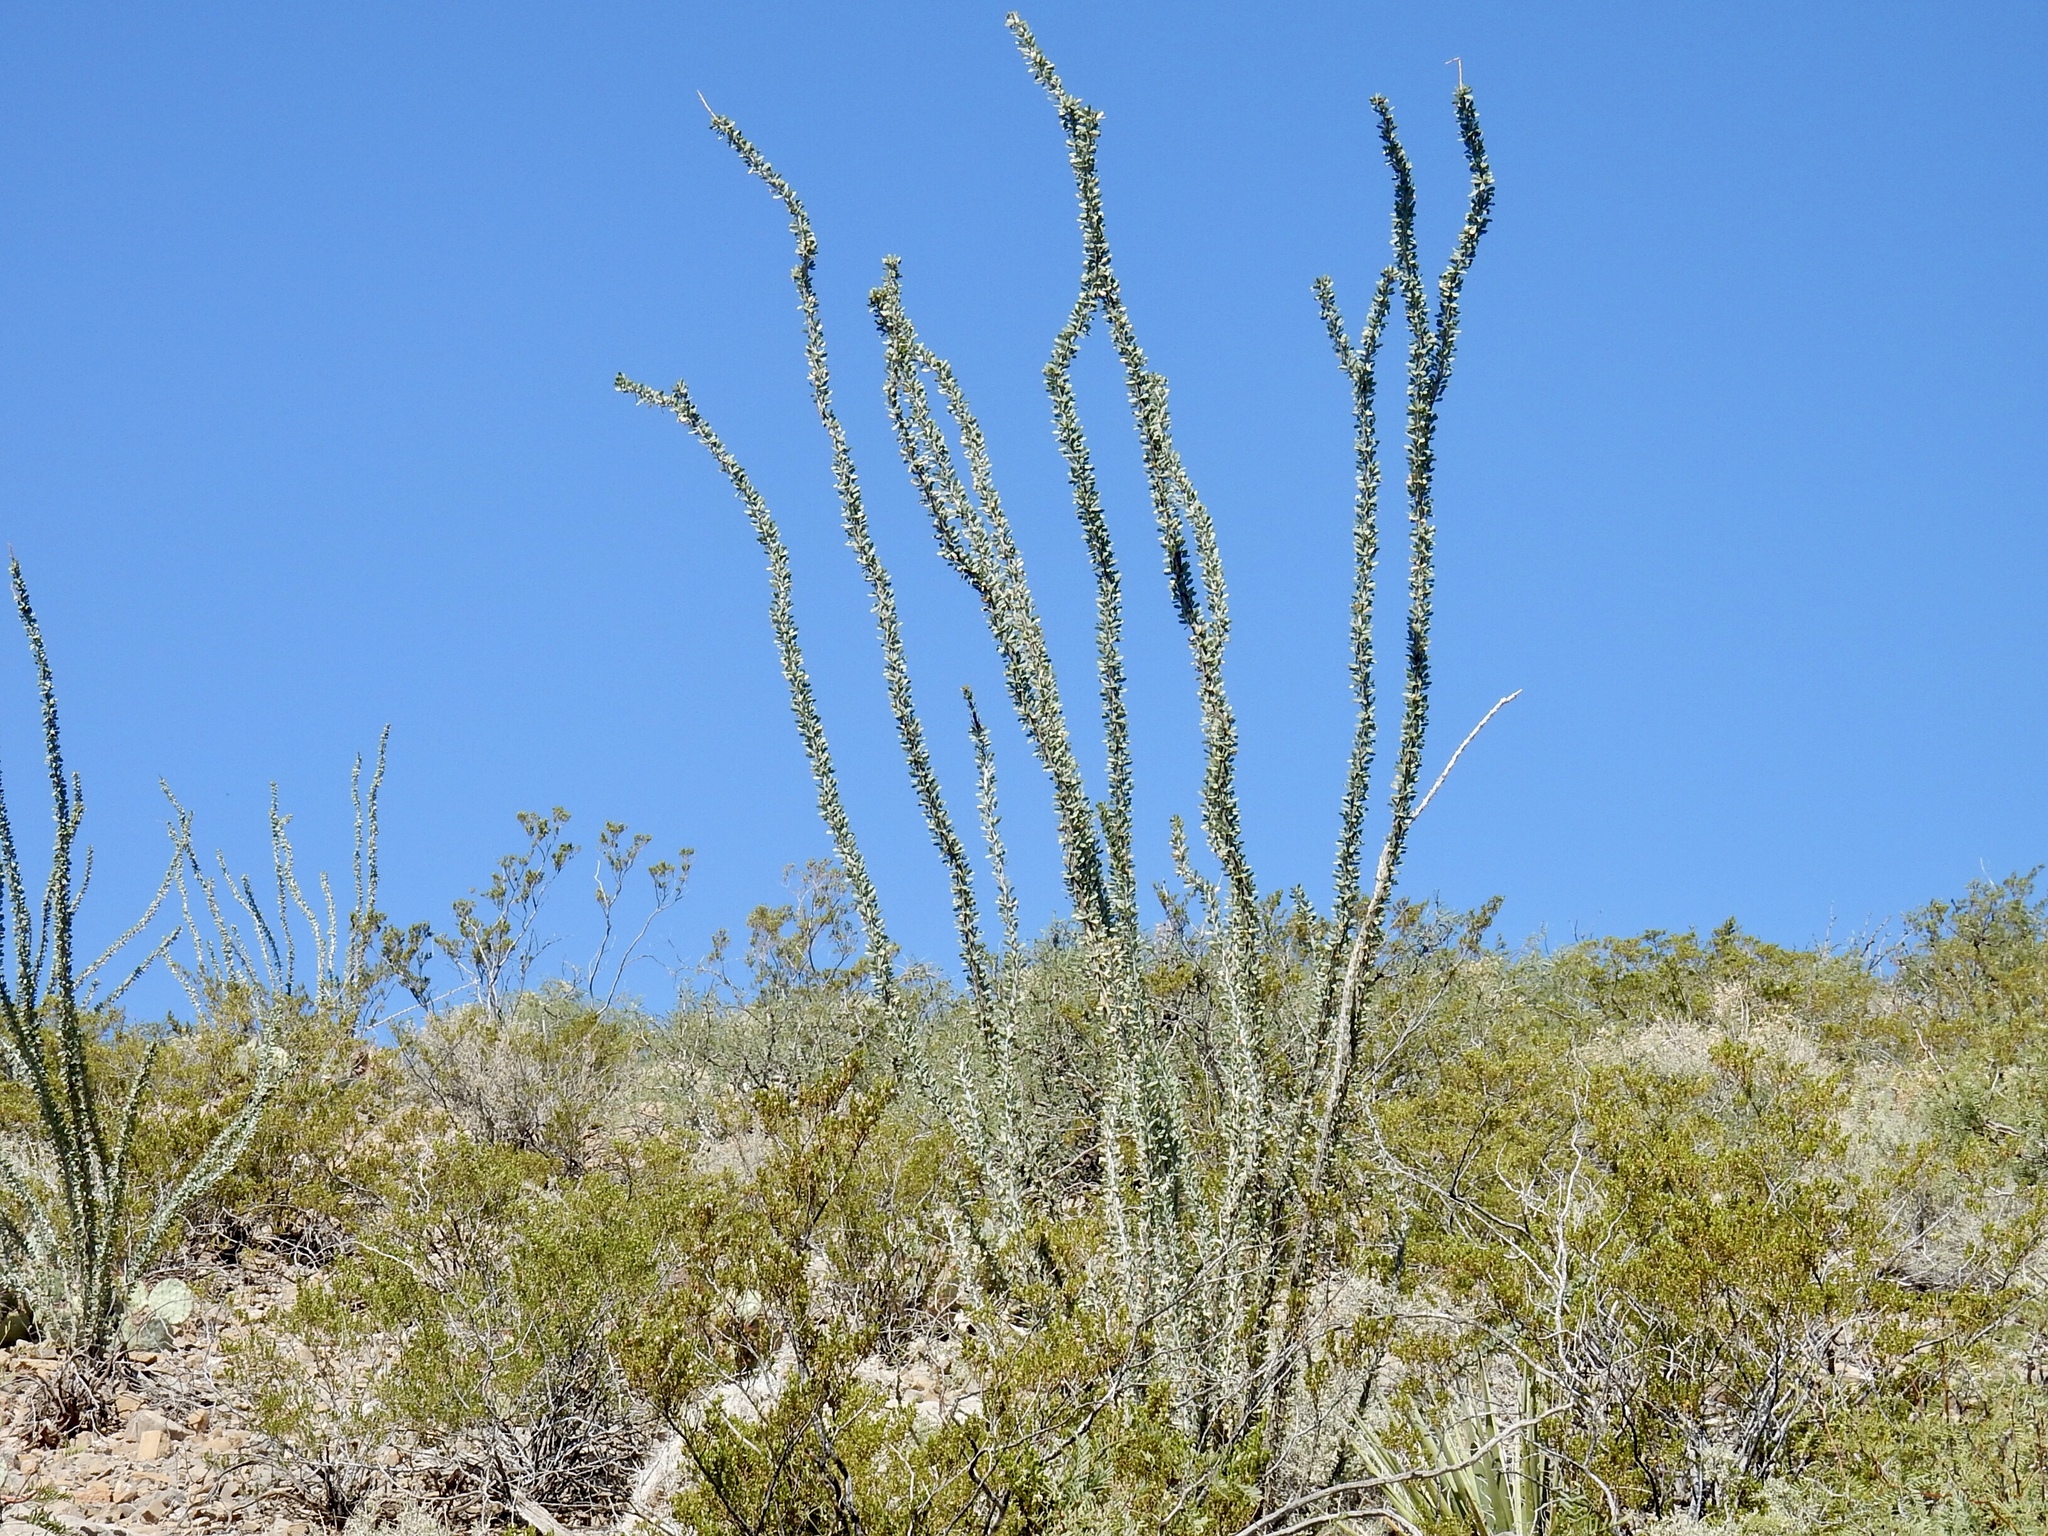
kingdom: Plantae
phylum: Tracheophyta
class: Magnoliopsida
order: Ericales
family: Fouquieriaceae
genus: Fouquieria
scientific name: Fouquieria splendens
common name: Vine-cactus
